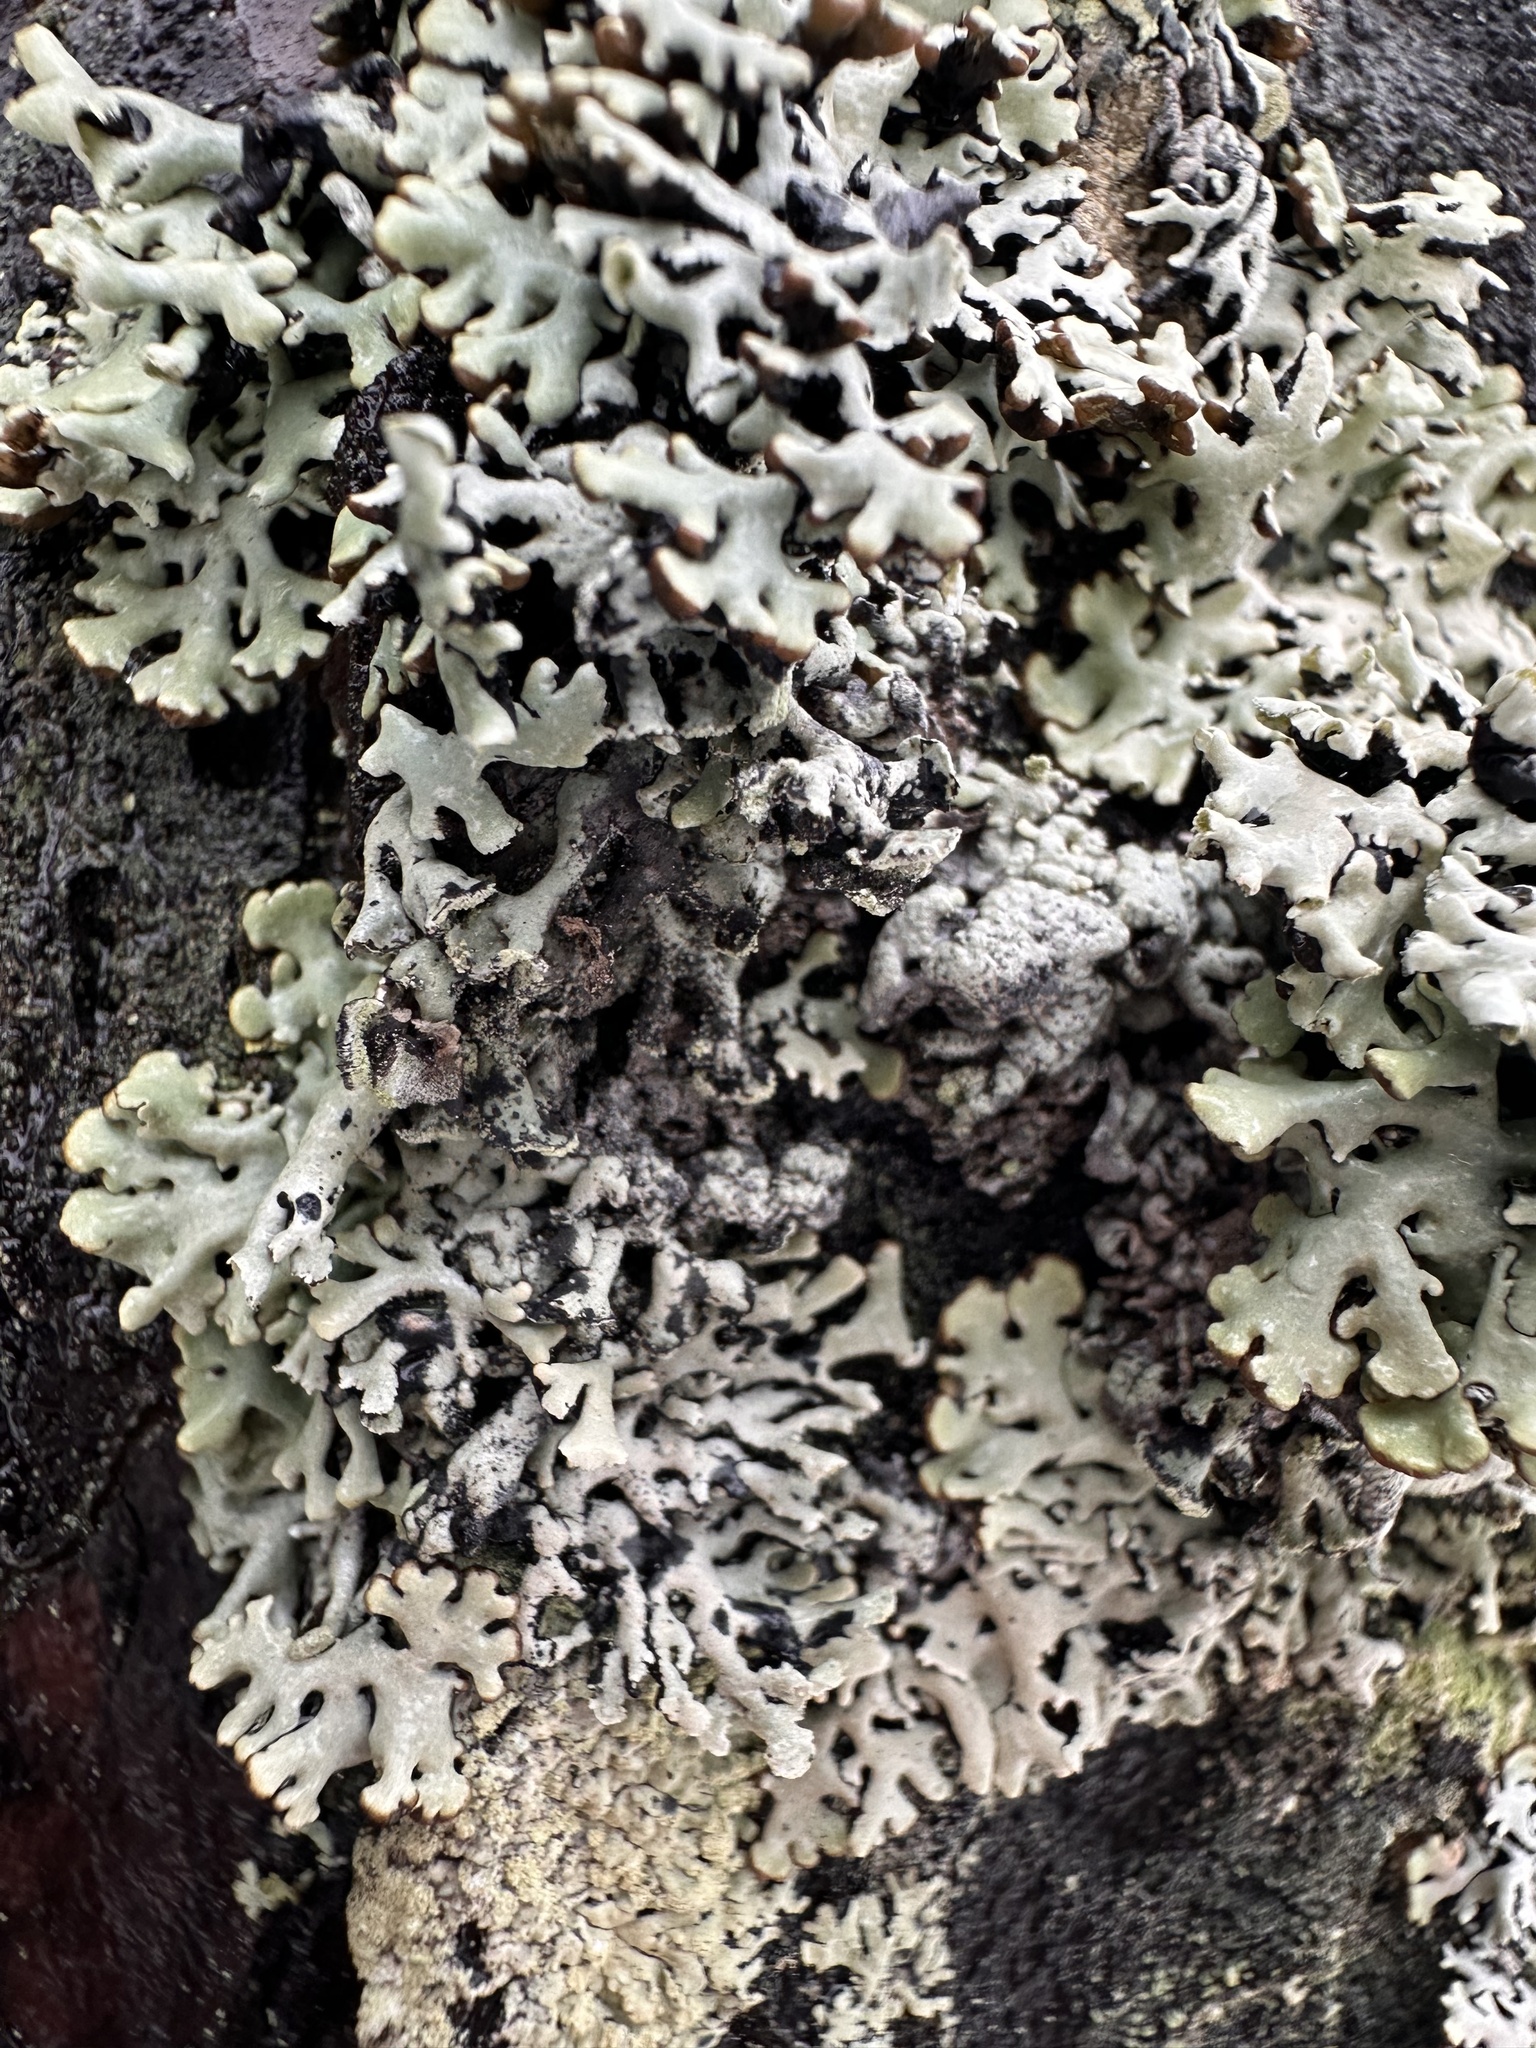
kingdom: Fungi
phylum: Ascomycota
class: Lecanoromycetes
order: Lecanorales
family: Parmeliaceae
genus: Hypogymnia
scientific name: Hypogymnia physodes
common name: Dark crottle
